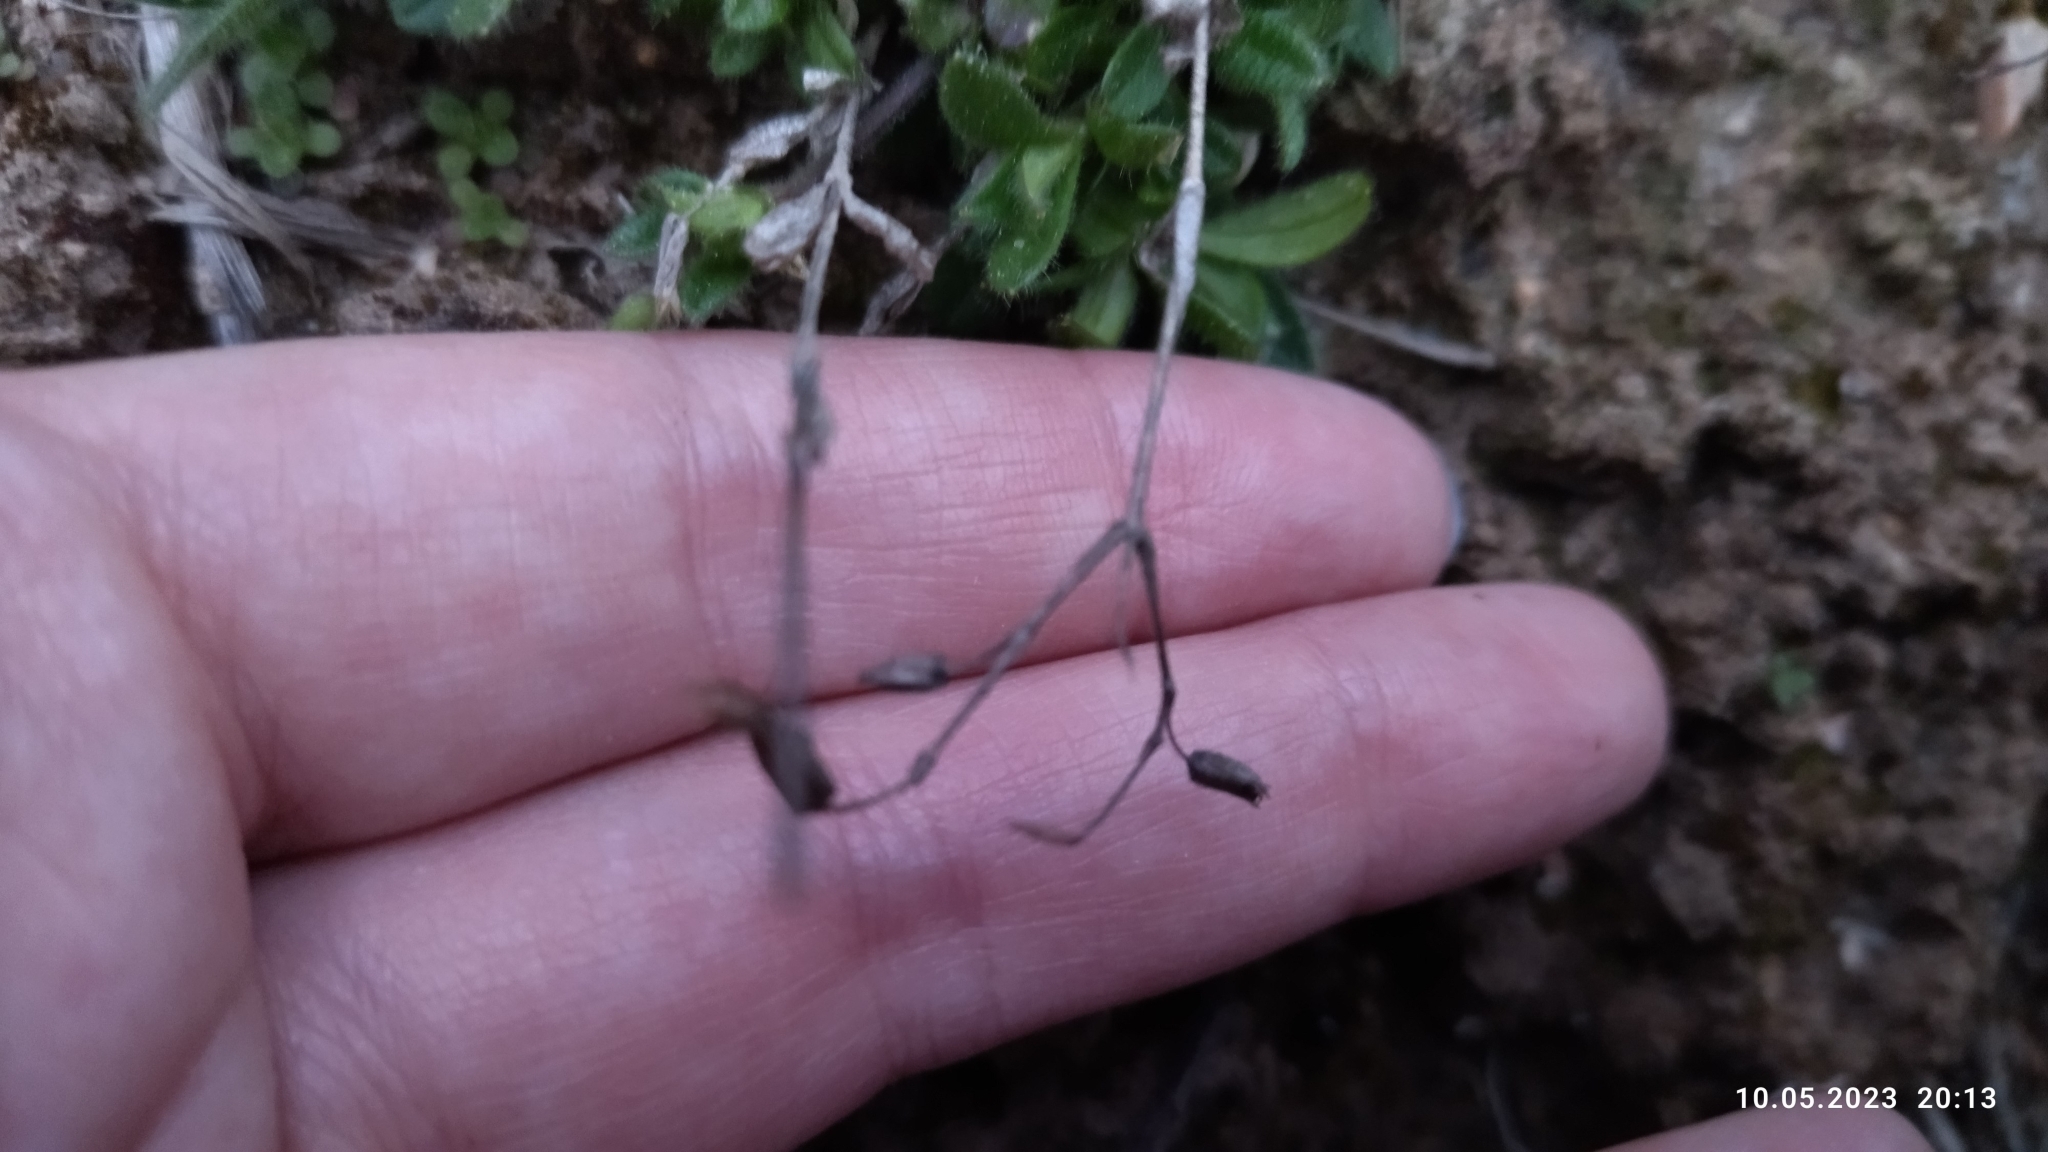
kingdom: Plantae
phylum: Tracheophyta
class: Magnoliopsida
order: Caryophyllales
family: Caryophyllaceae
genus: Cerastium
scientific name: Cerastium holosteoides
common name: Big chickweed
